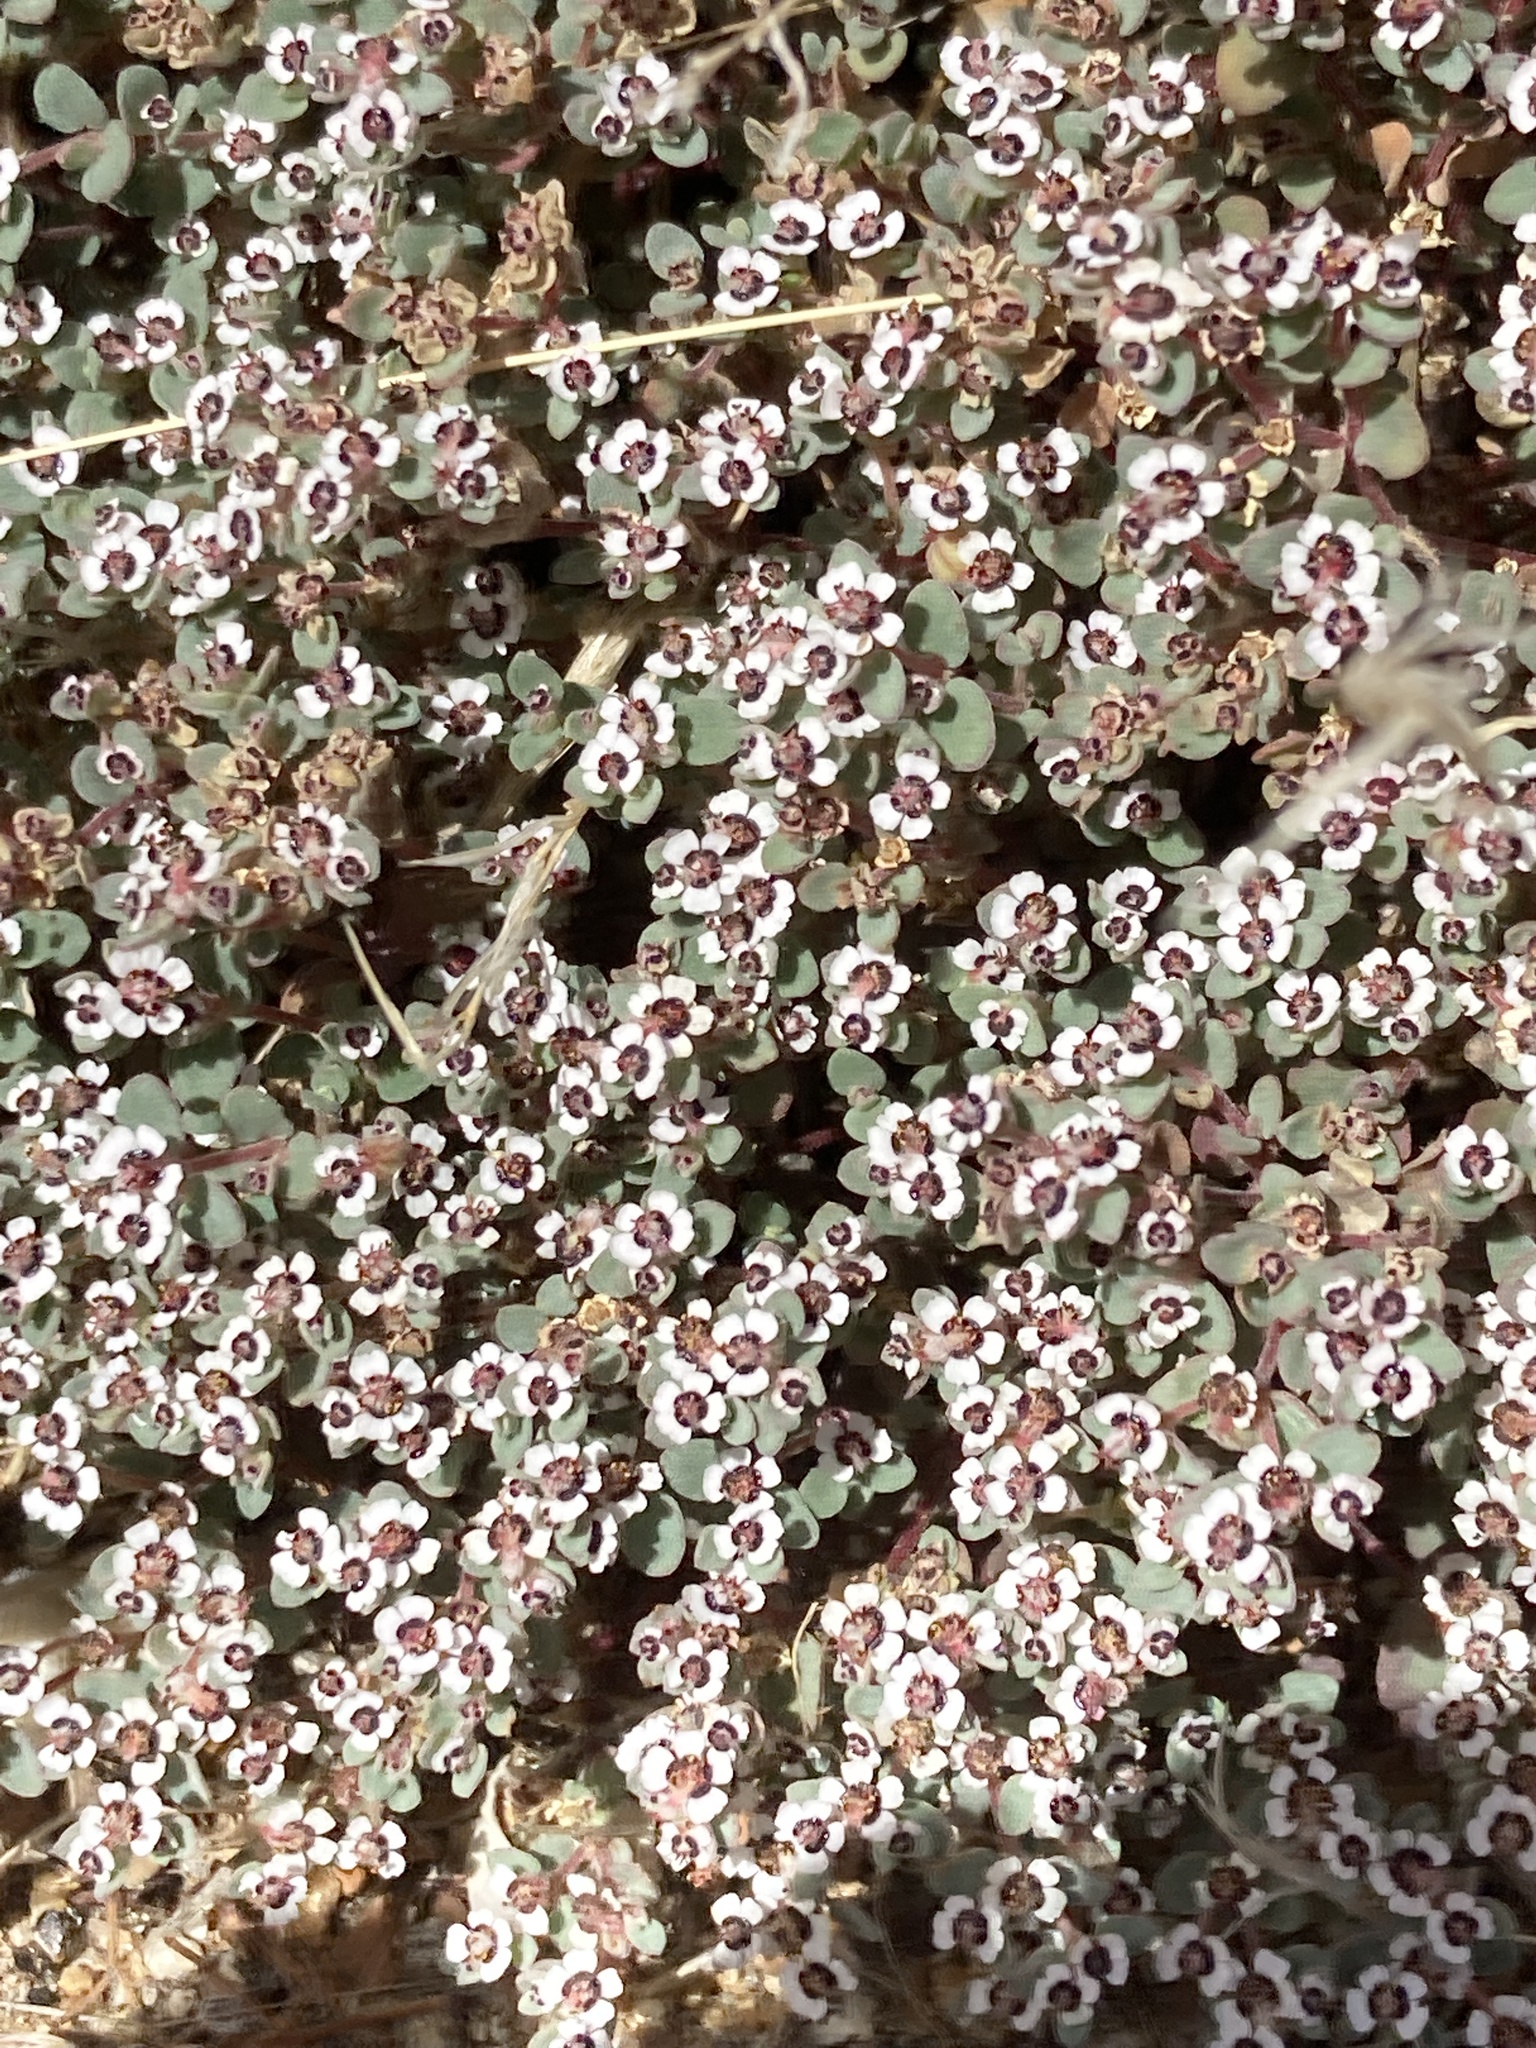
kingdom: Plantae
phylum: Tracheophyta
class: Magnoliopsida
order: Malpighiales
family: Euphorbiaceae
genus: Euphorbia
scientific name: Euphorbia melanadenia
